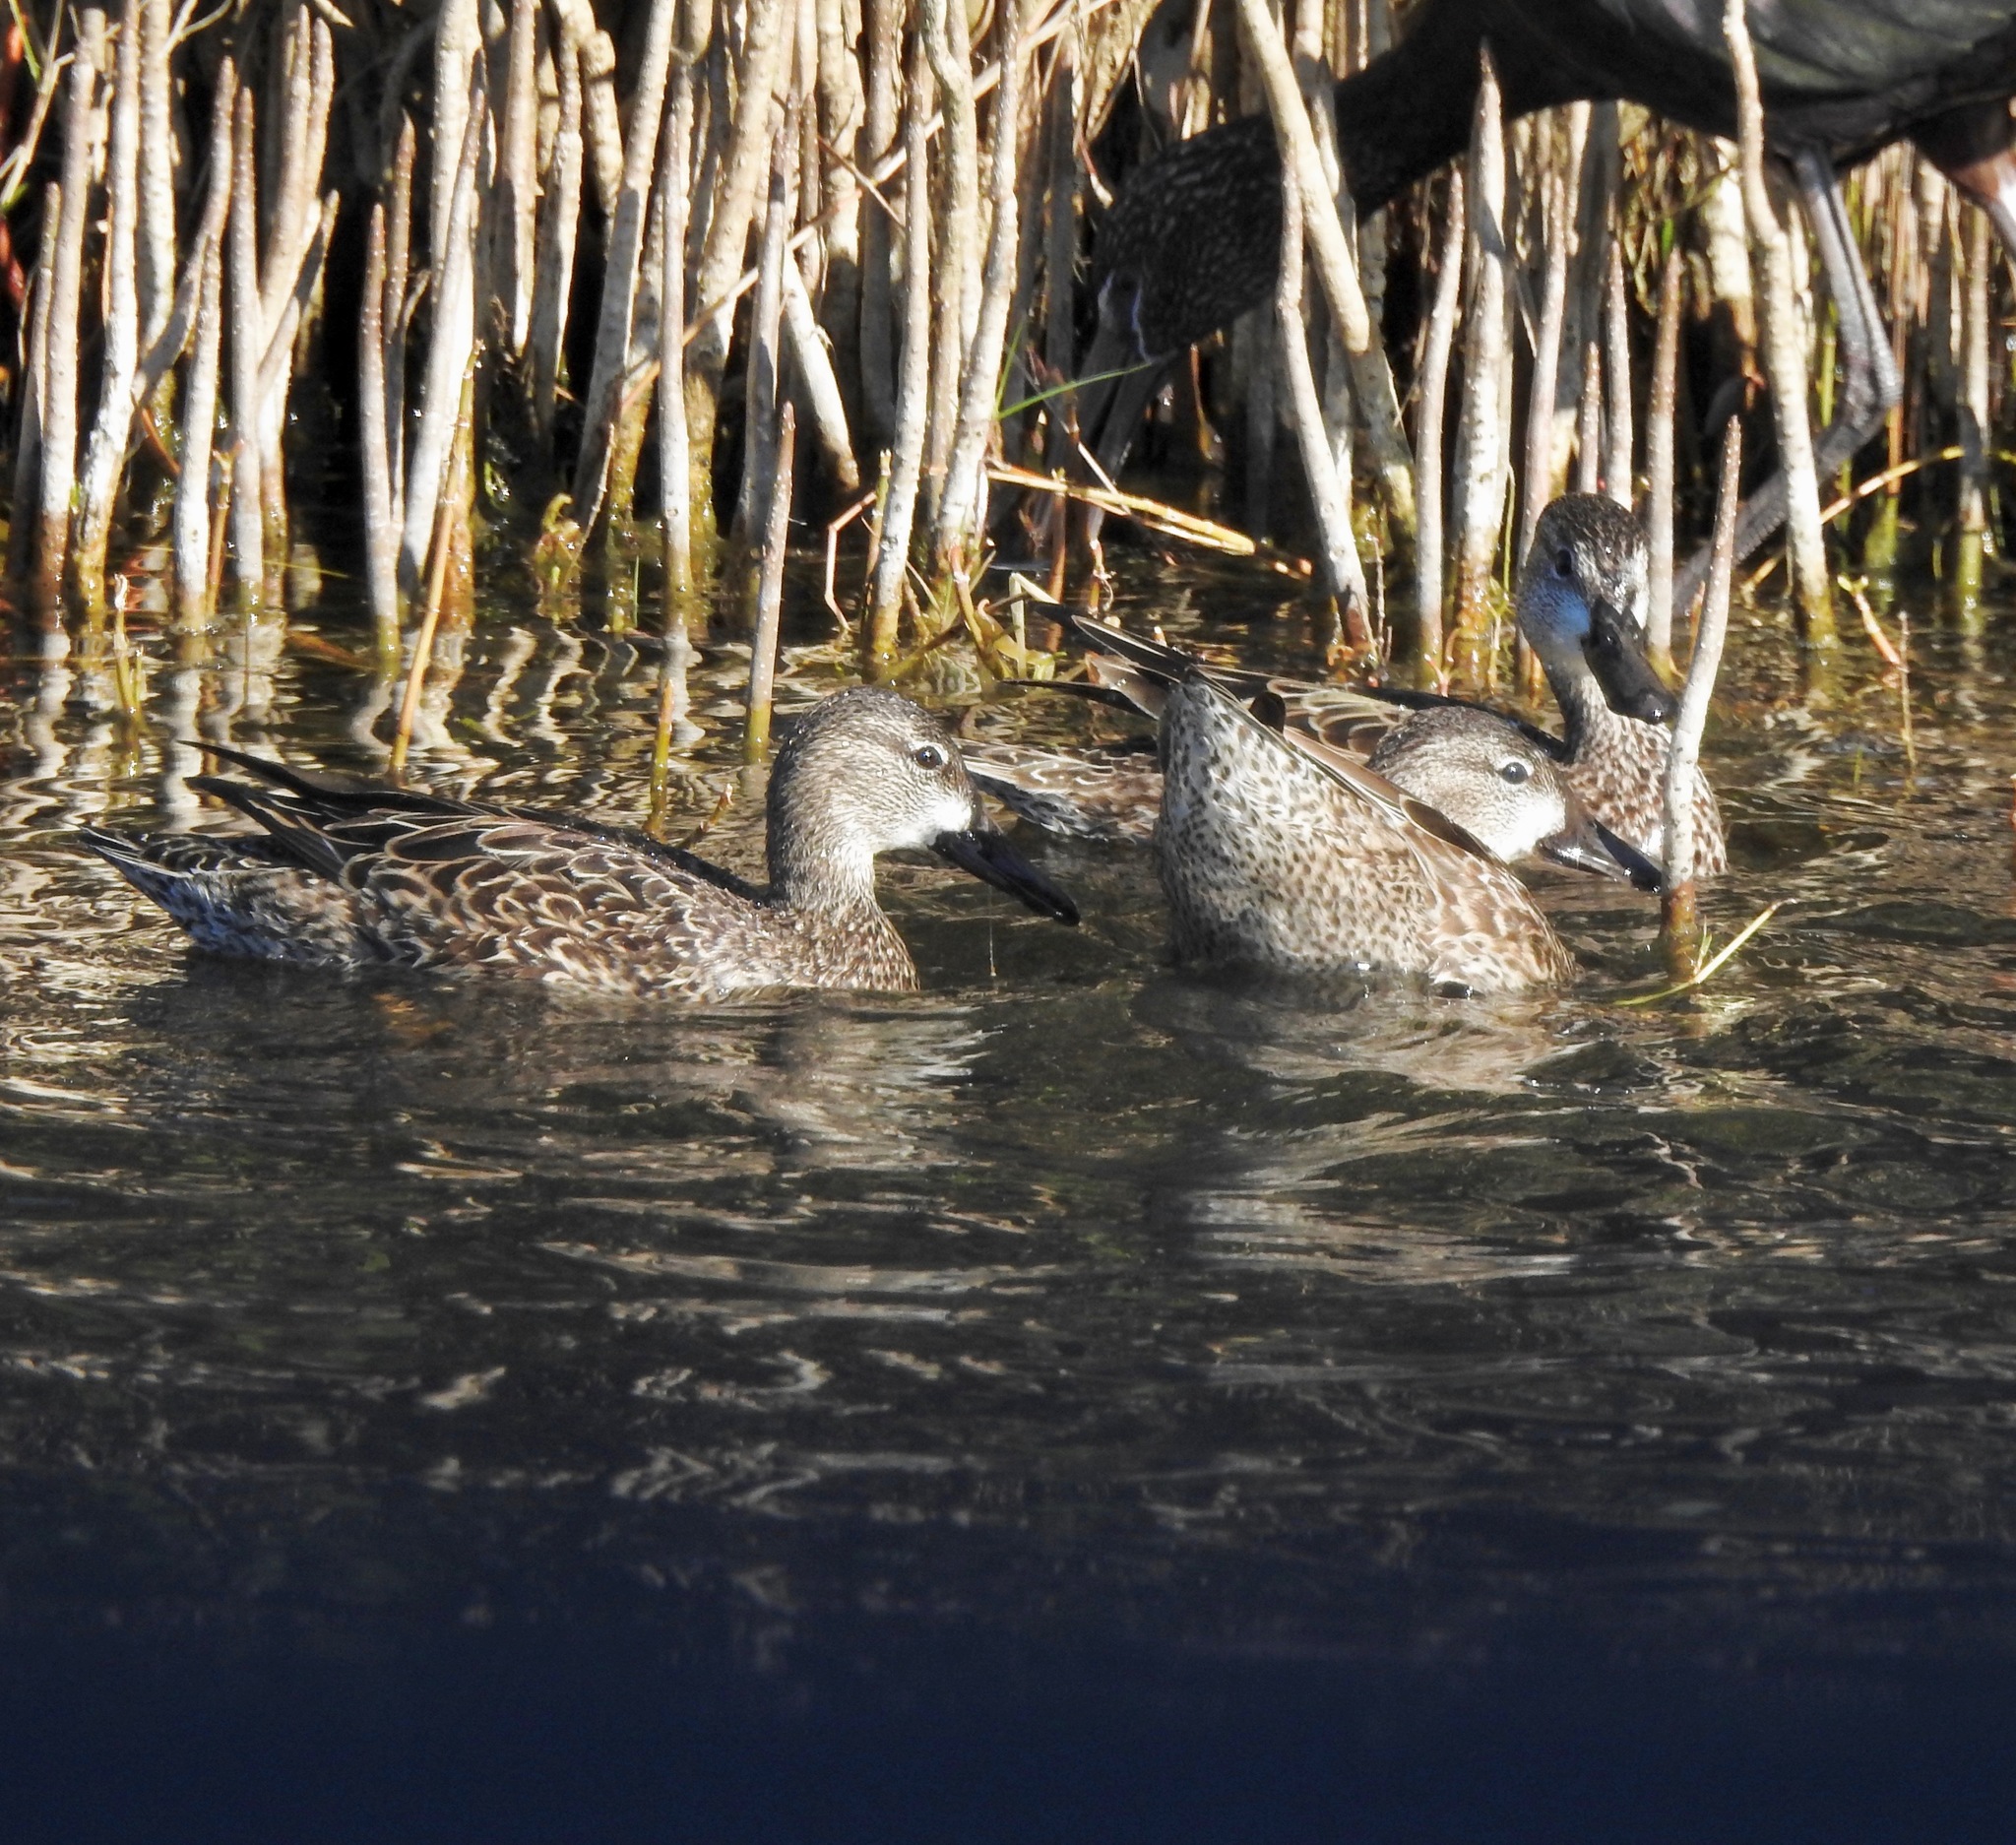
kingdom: Animalia
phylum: Chordata
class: Aves
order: Anseriformes
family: Anatidae
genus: Spatula
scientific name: Spatula discors
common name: Blue-winged teal
